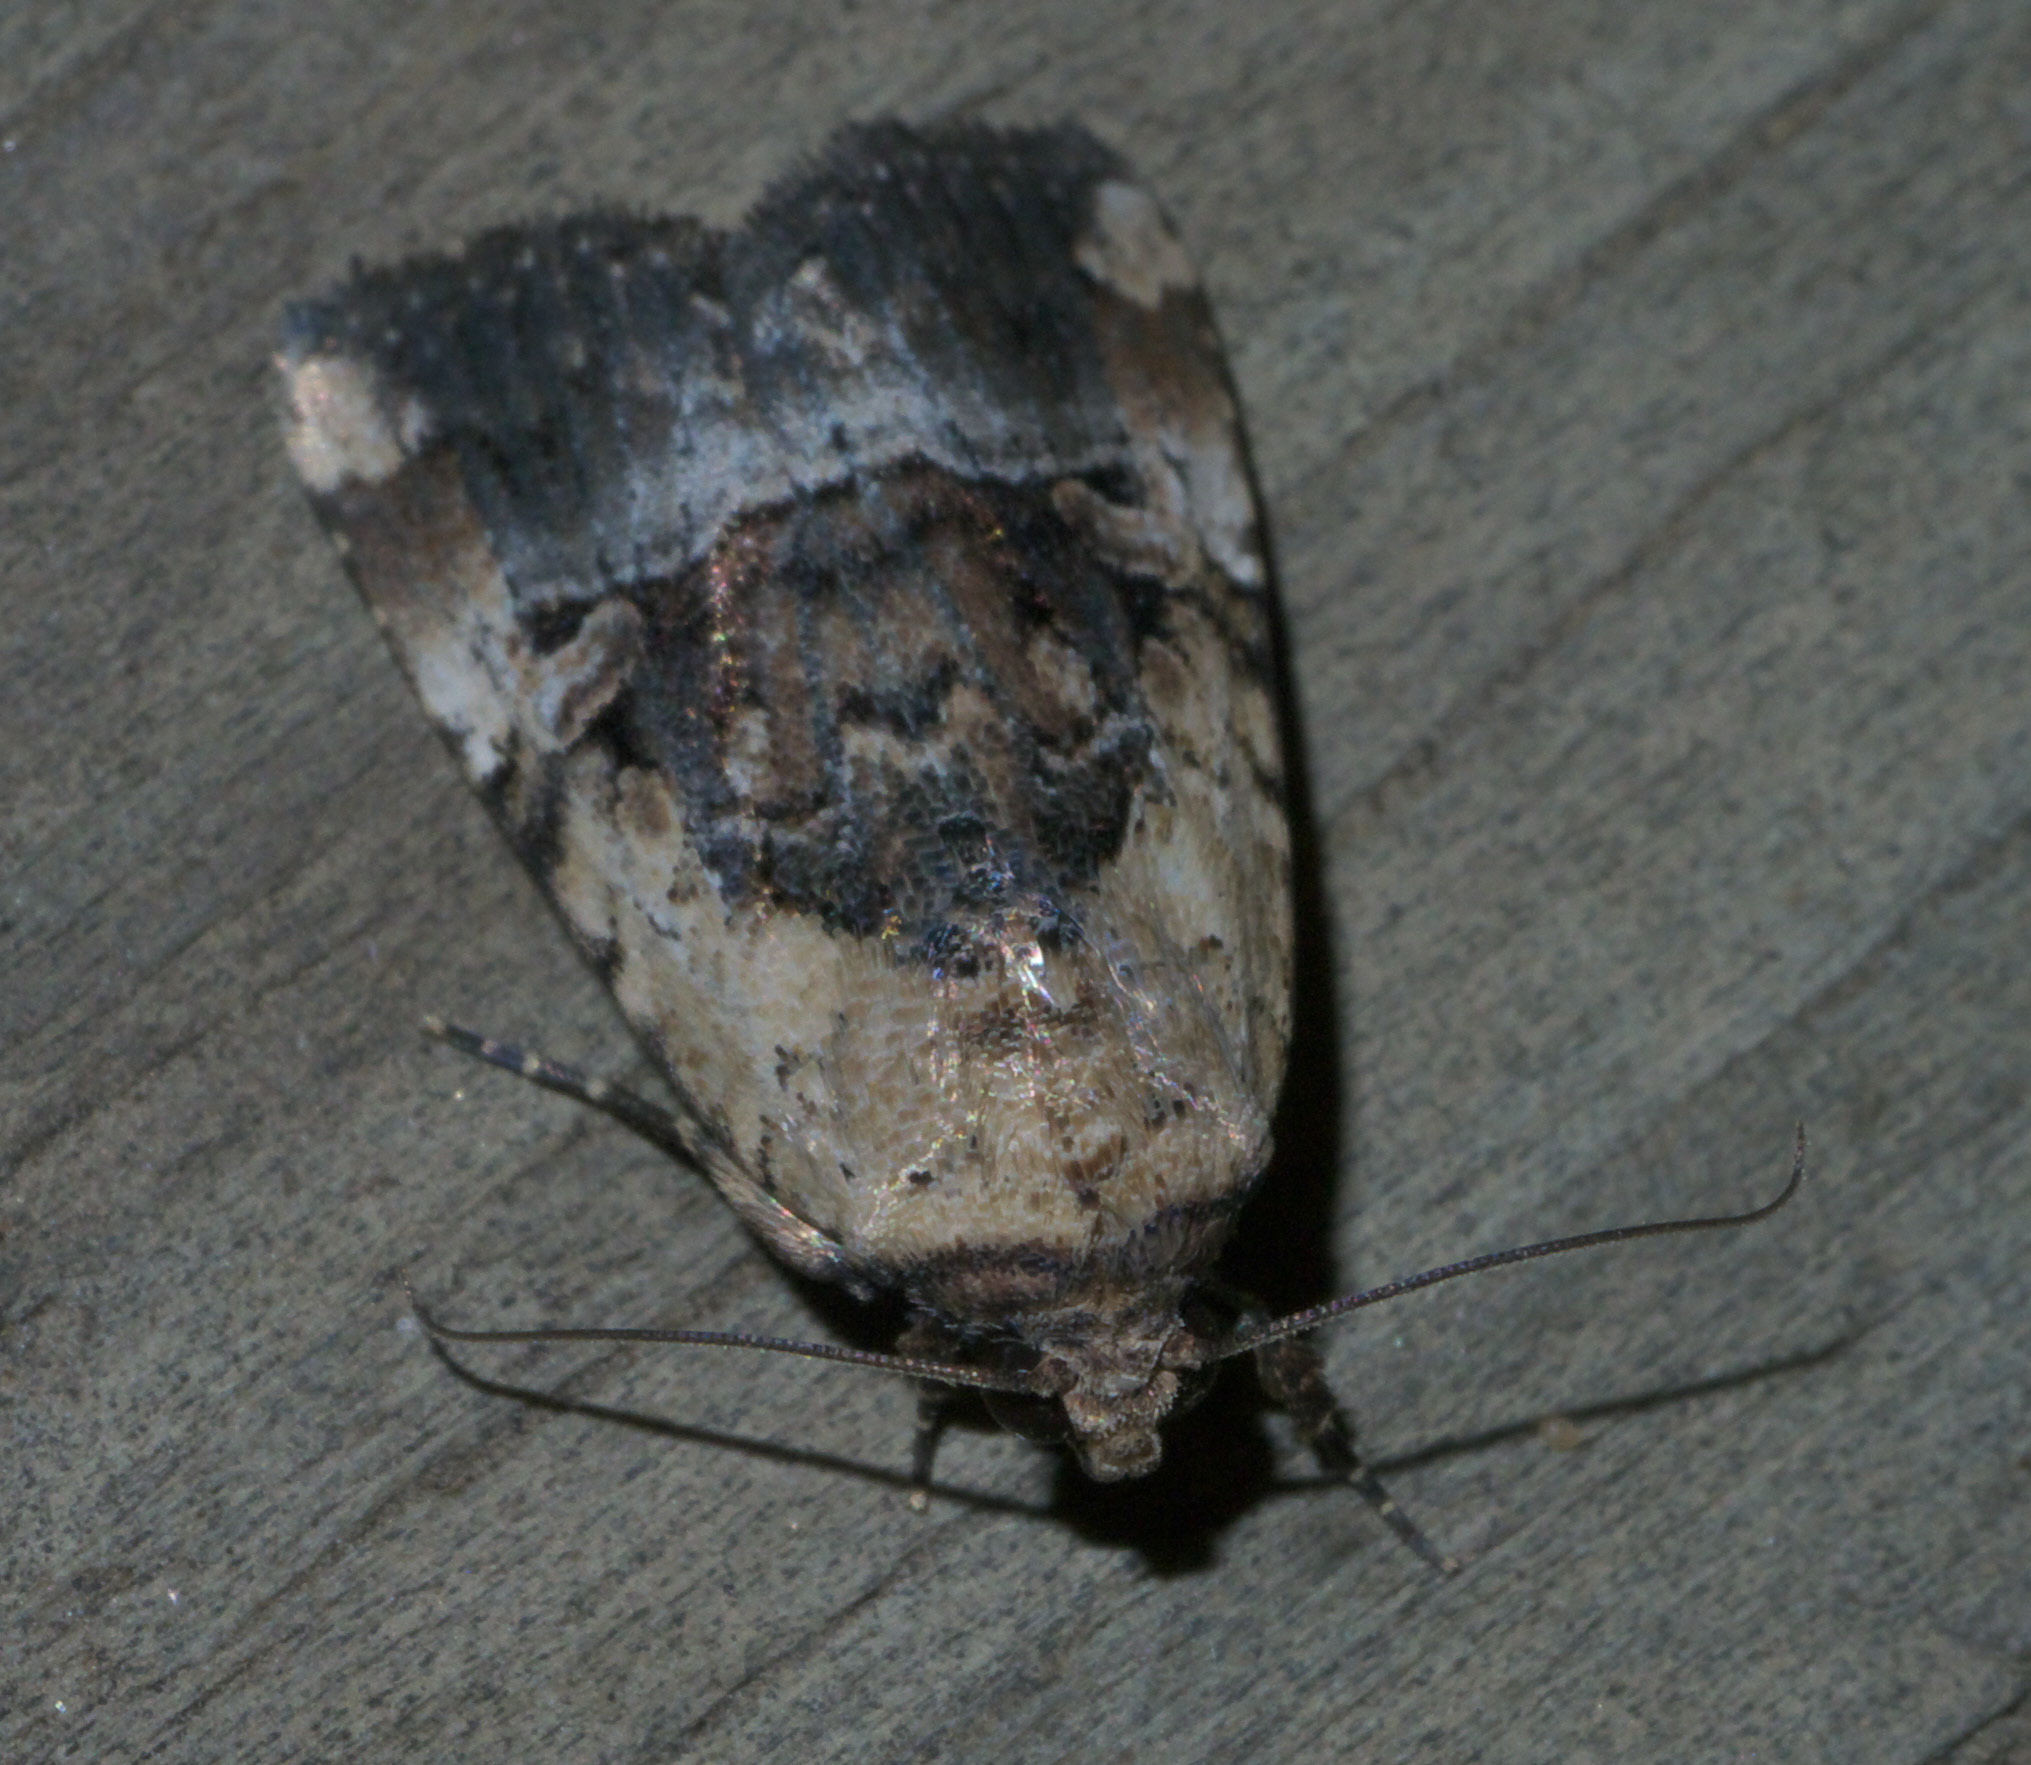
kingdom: Animalia
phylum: Arthropoda
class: Insecta
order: Lepidoptera
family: Noctuidae
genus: Elaphria
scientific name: Elaphria chalcedonia
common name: Chalcedony midget
